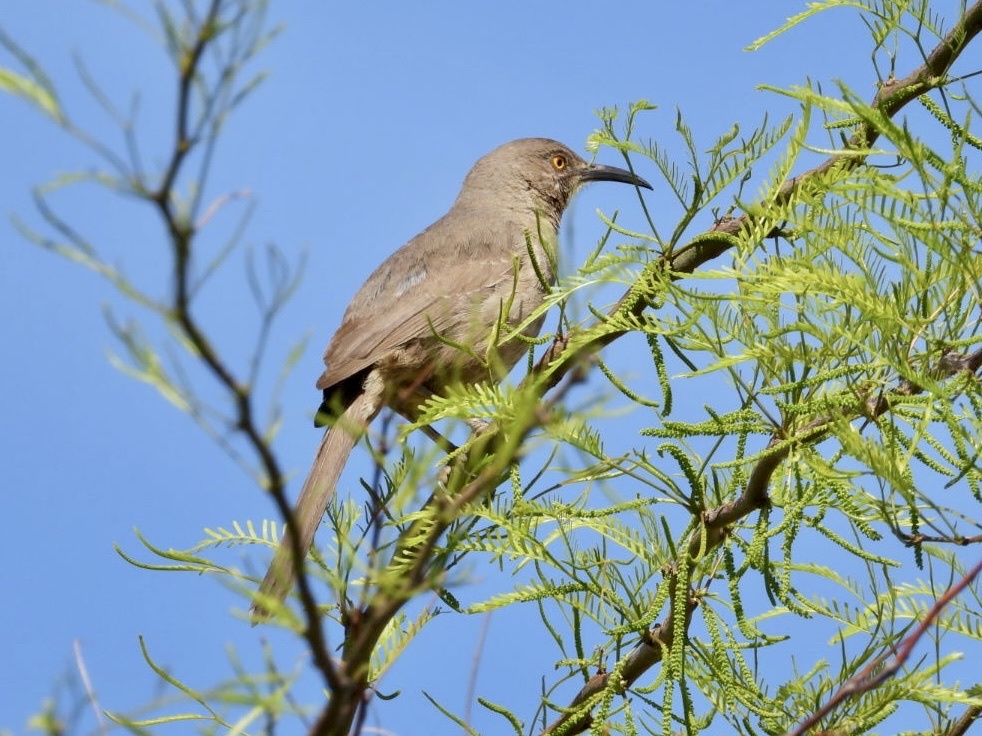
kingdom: Animalia
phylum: Chordata
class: Aves
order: Passeriformes
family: Mimidae
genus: Toxostoma
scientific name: Toxostoma curvirostre
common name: Curve-billed thrasher
